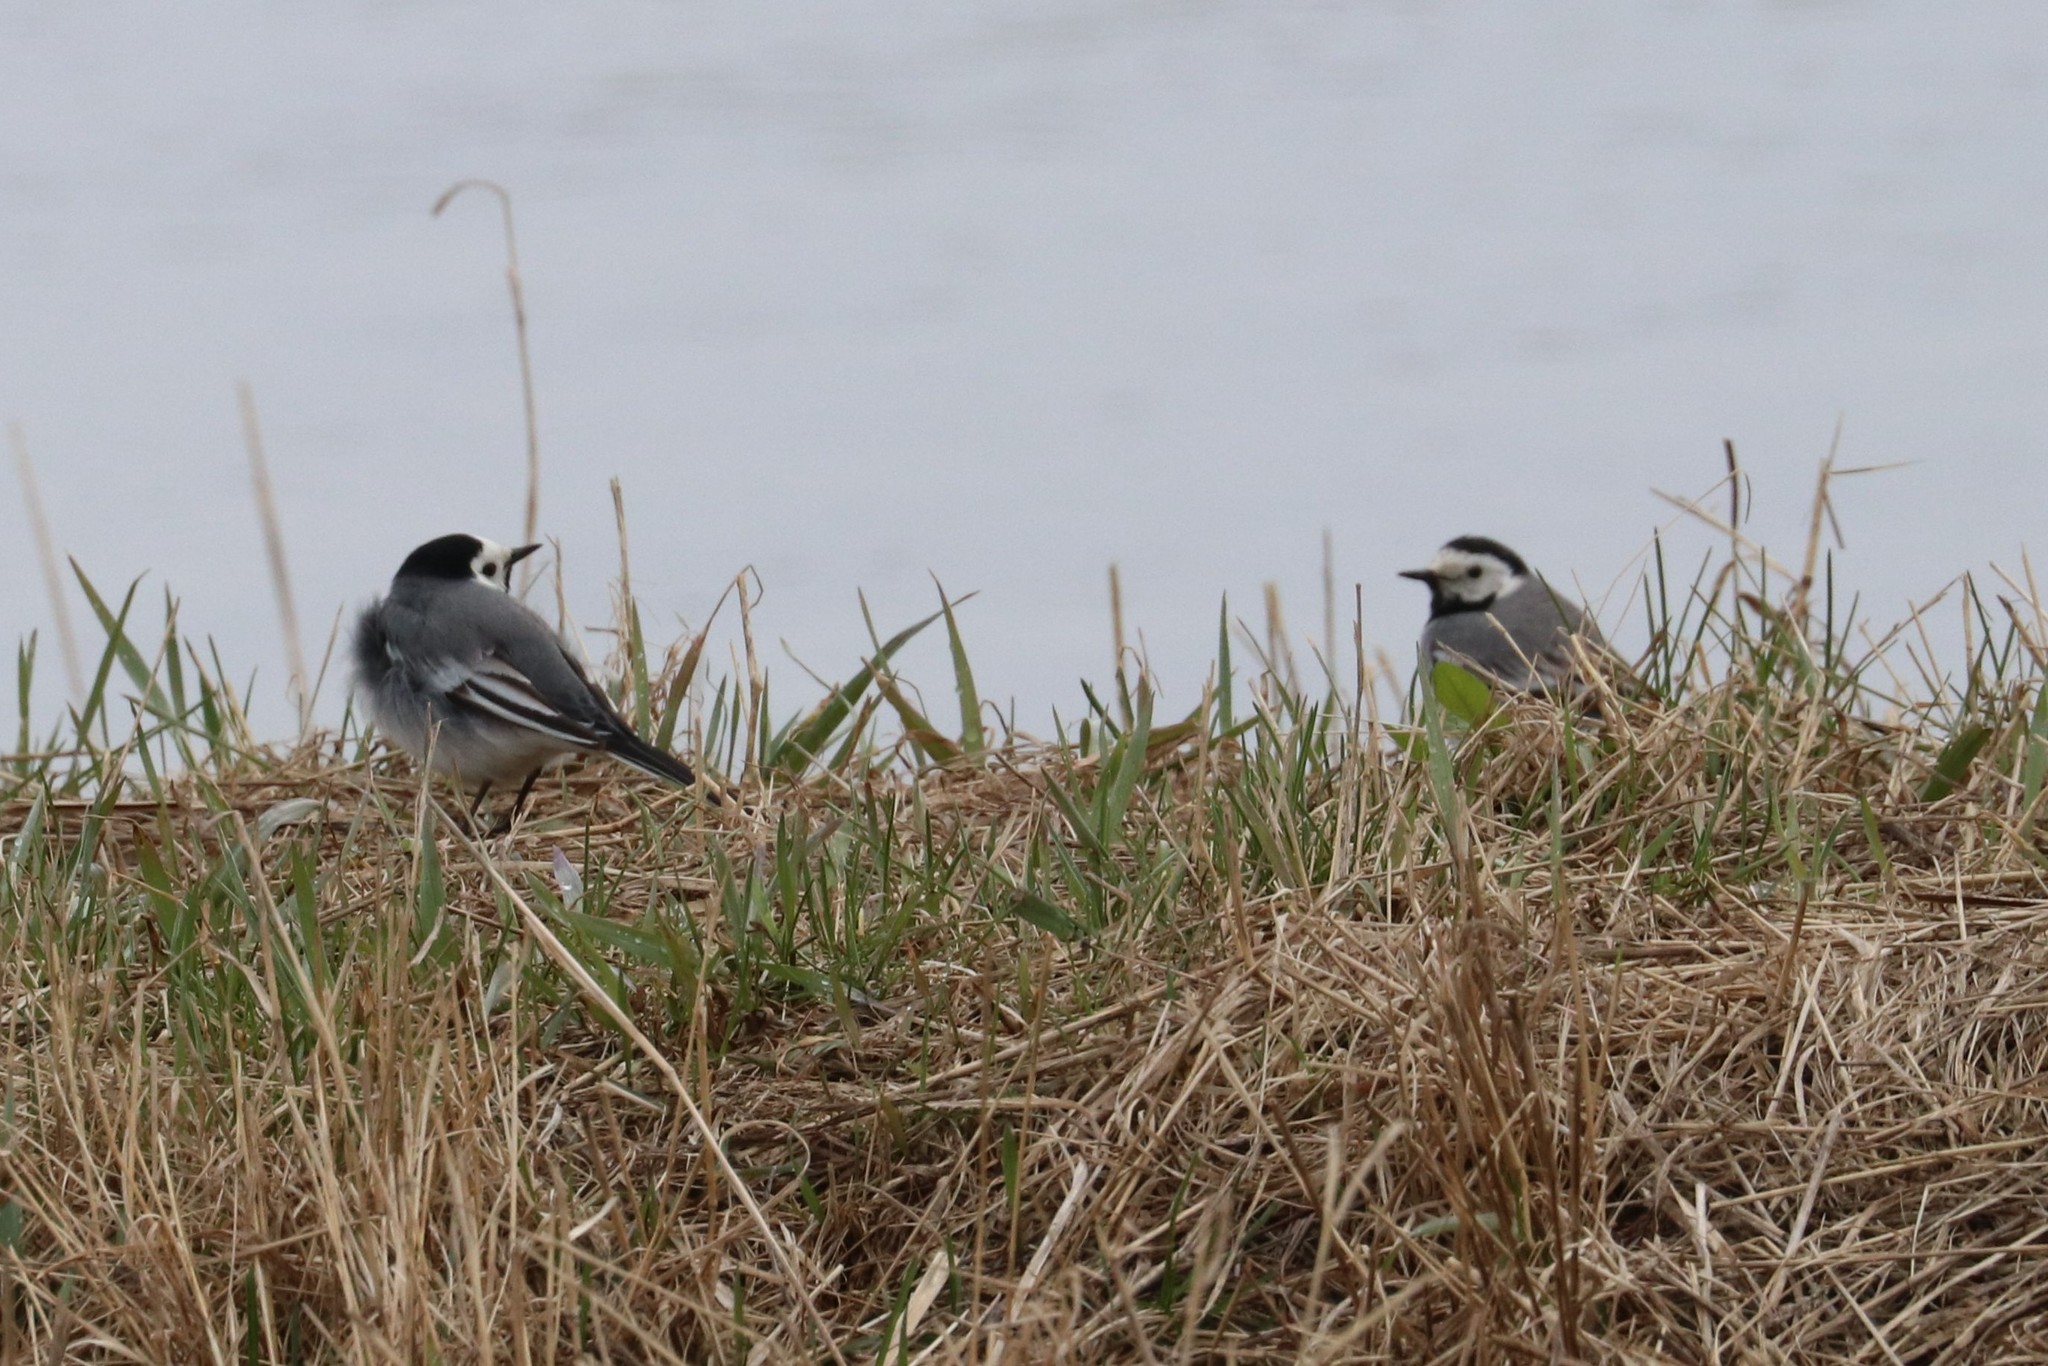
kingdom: Animalia
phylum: Chordata
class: Aves
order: Passeriformes
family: Motacillidae
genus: Motacilla
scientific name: Motacilla alba
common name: White wagtail
